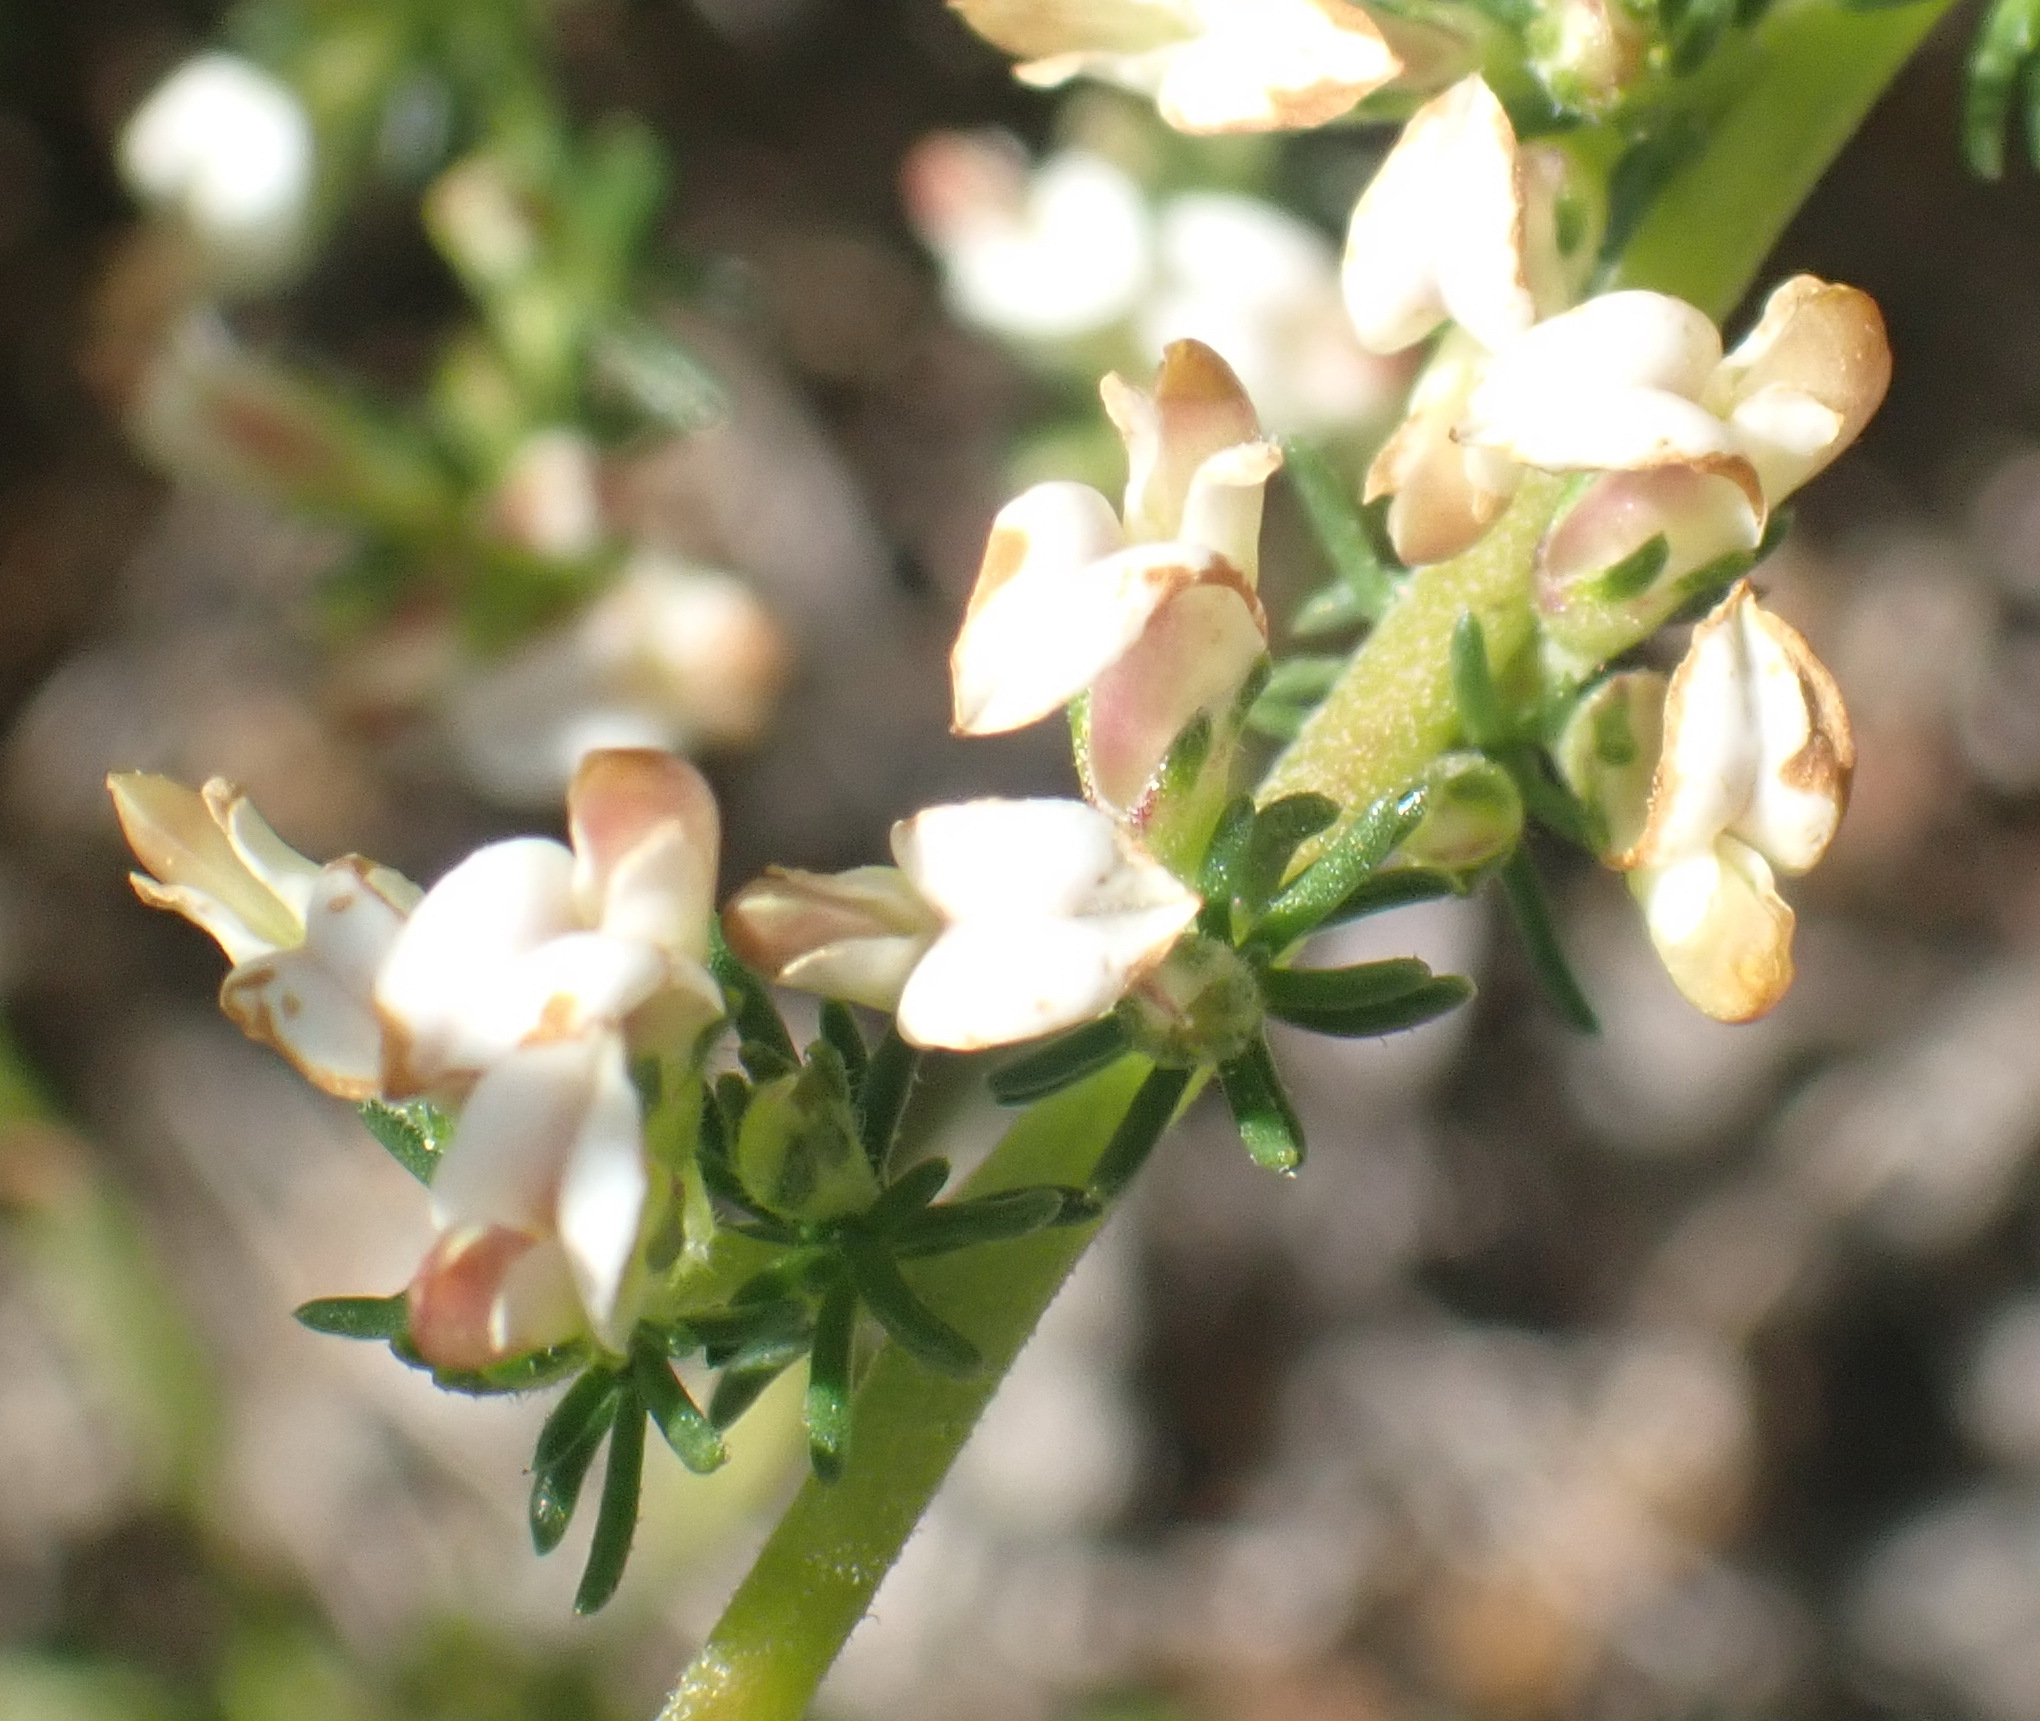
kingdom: Plantae
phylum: Tracheophyta
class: Magnoliopsida
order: Fabales
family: Fabaceae
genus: Aspalathus
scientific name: Aspalathus hispida
